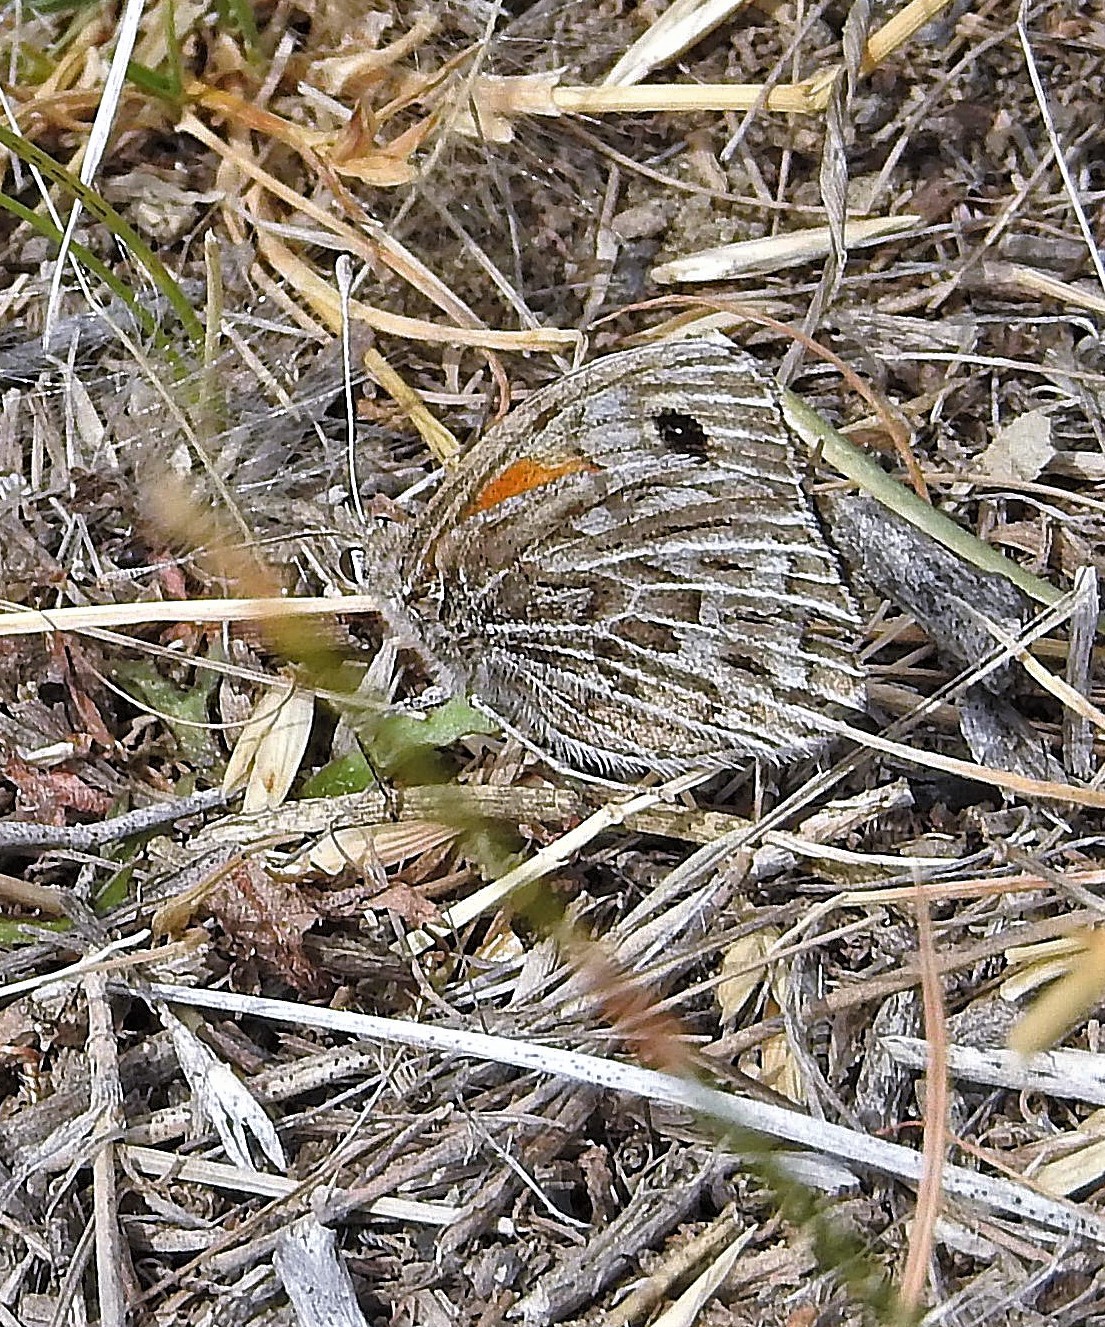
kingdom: Animalia
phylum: Arthropoda
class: Insecta
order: Lepidoptera
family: Nymphalidae
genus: Argyrophorus
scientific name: Argyrophorus argenteus
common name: Silver satyr
